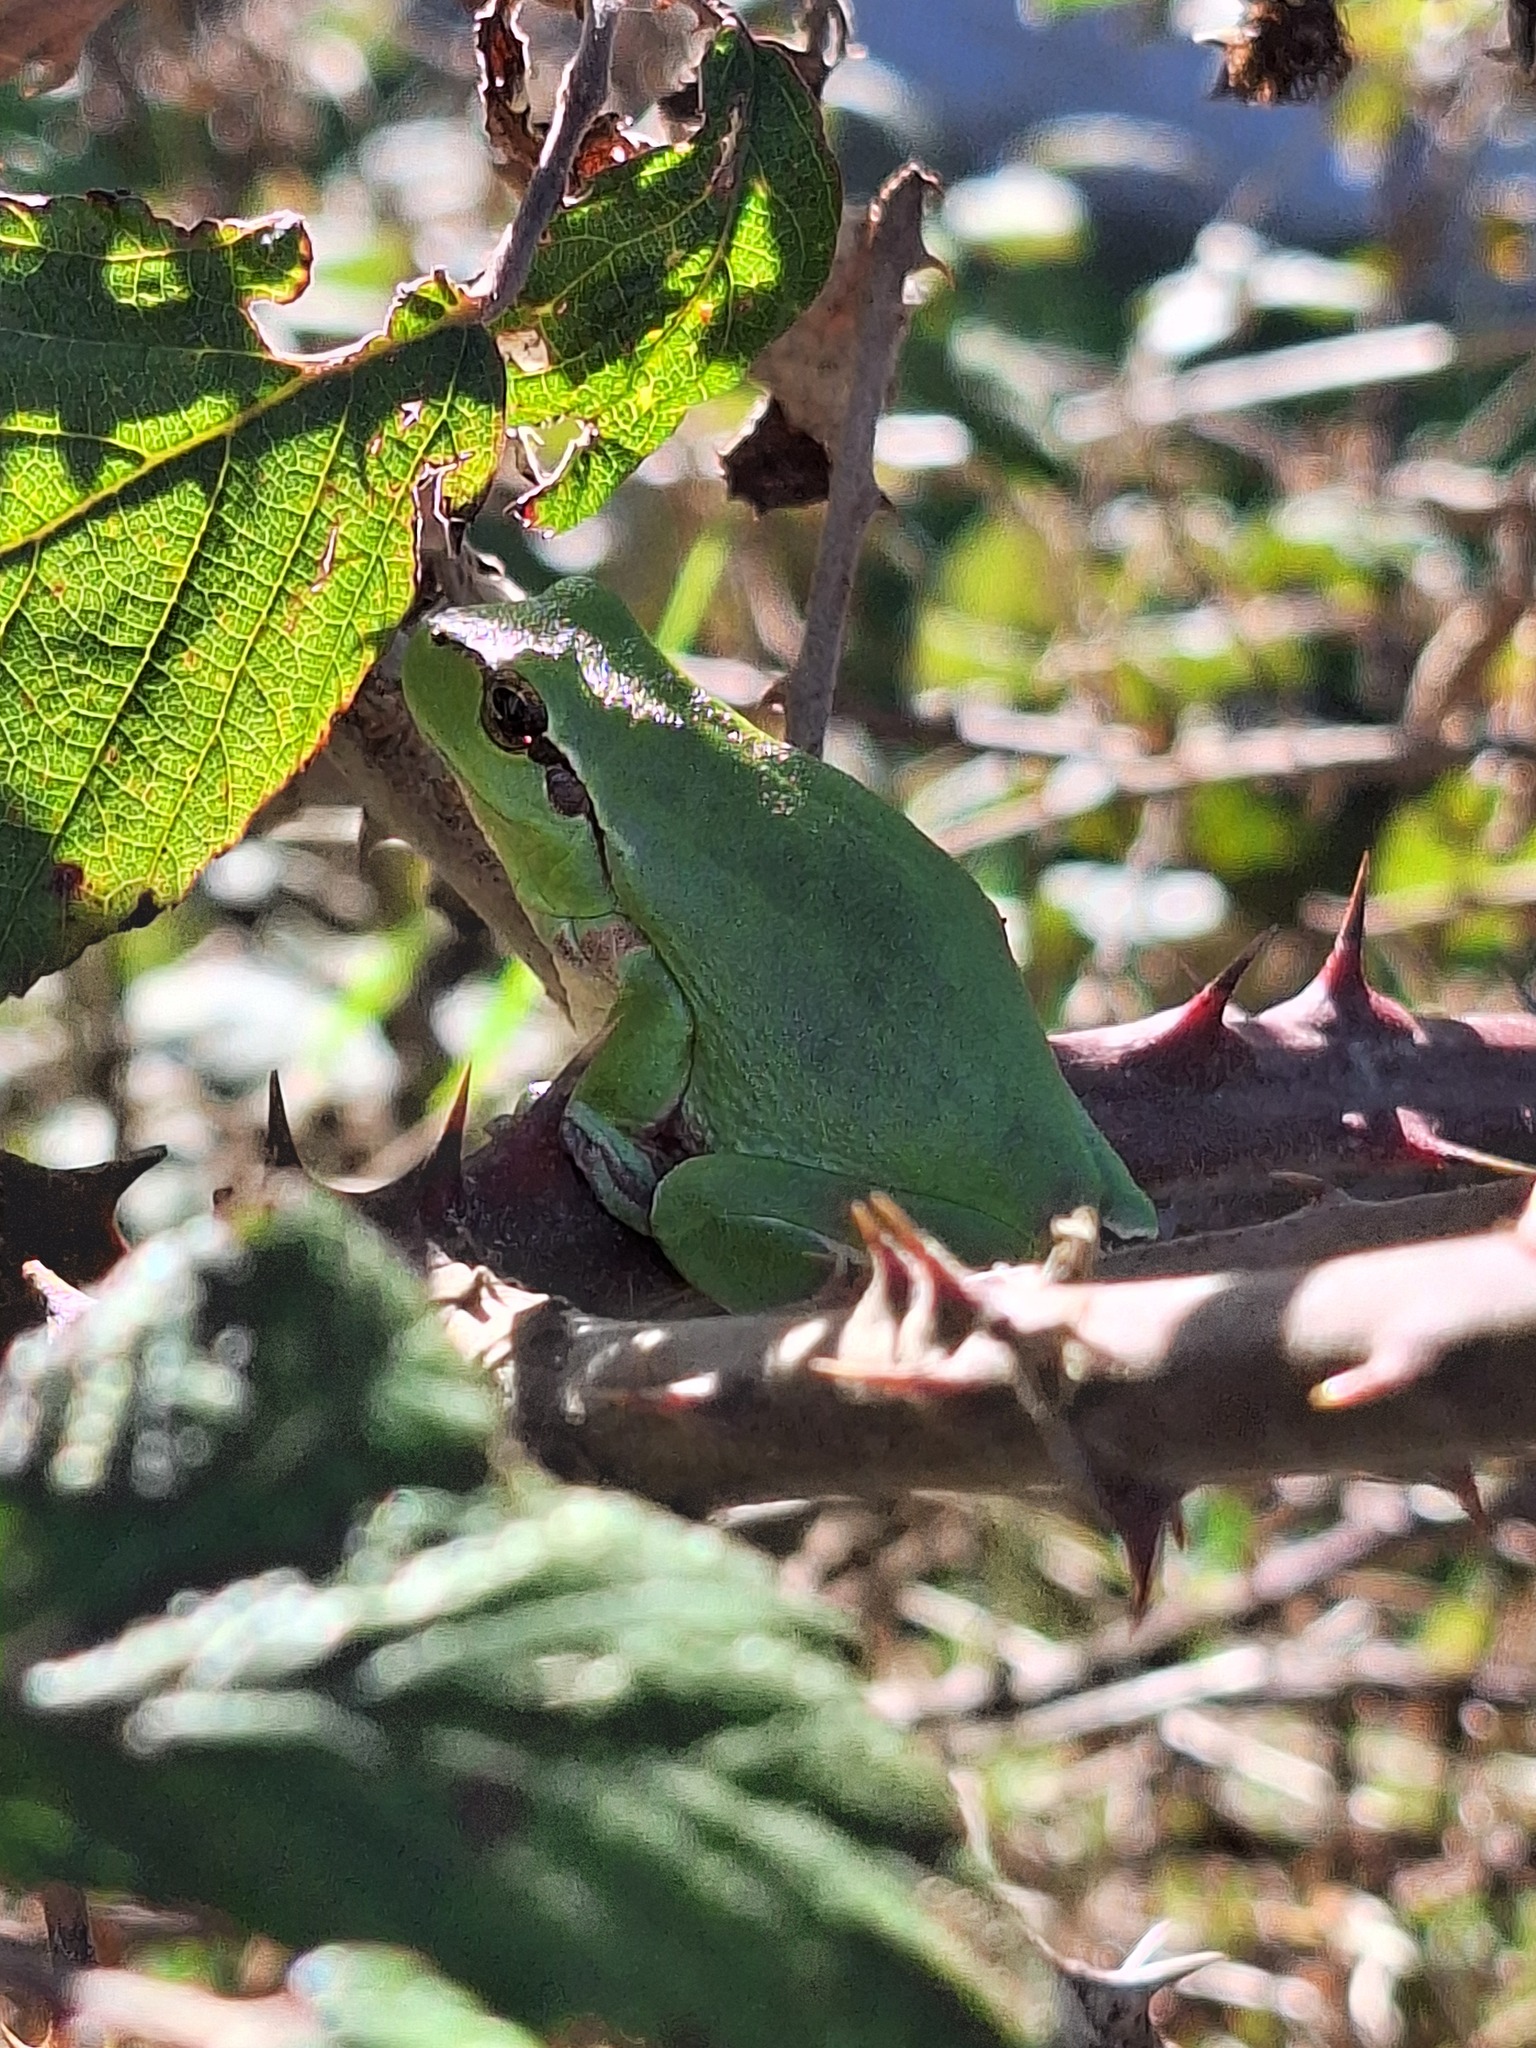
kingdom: Animalia
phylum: Chordata
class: Amphibia
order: Anura
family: Hylidae
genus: Hyla
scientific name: Hyla meridionalis
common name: Stripeless tree frog
